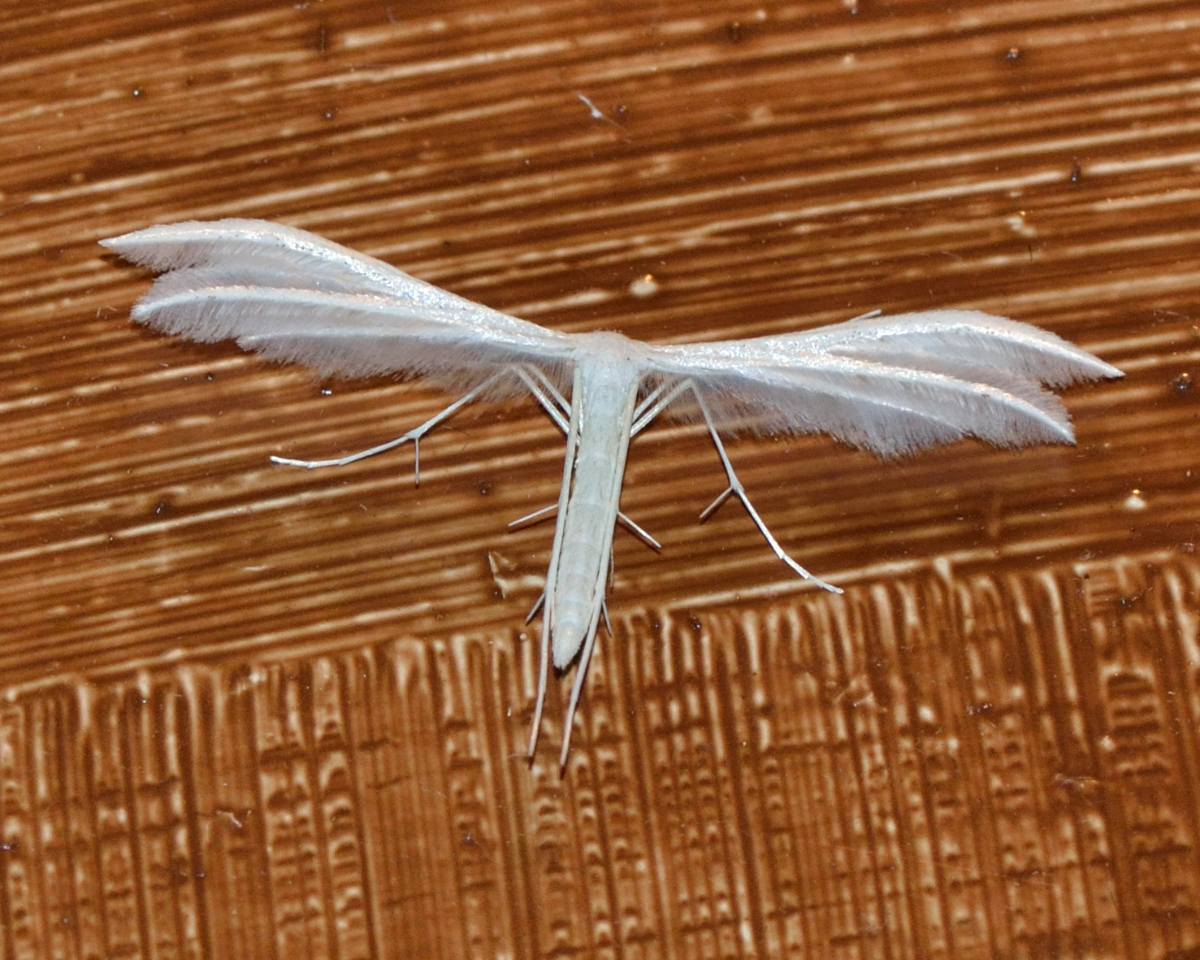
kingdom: Animalia
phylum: Arthropoda
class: Insecta
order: Lepidoptera
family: Pterophoridae
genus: Pterophorus
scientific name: Pterophorus pentadactyla
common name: White plume moth
